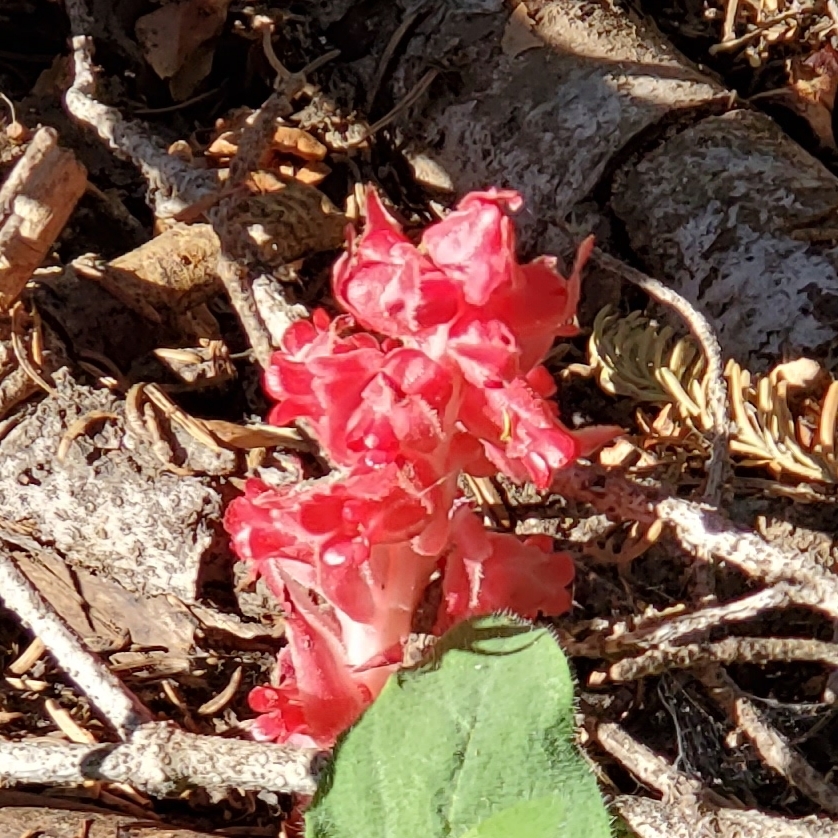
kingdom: Plantae
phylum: Tracheophyta
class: Magnoliopsida
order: Ericales
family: Ericaceae
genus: Sarcodes
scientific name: Sarcodes sanguinea
